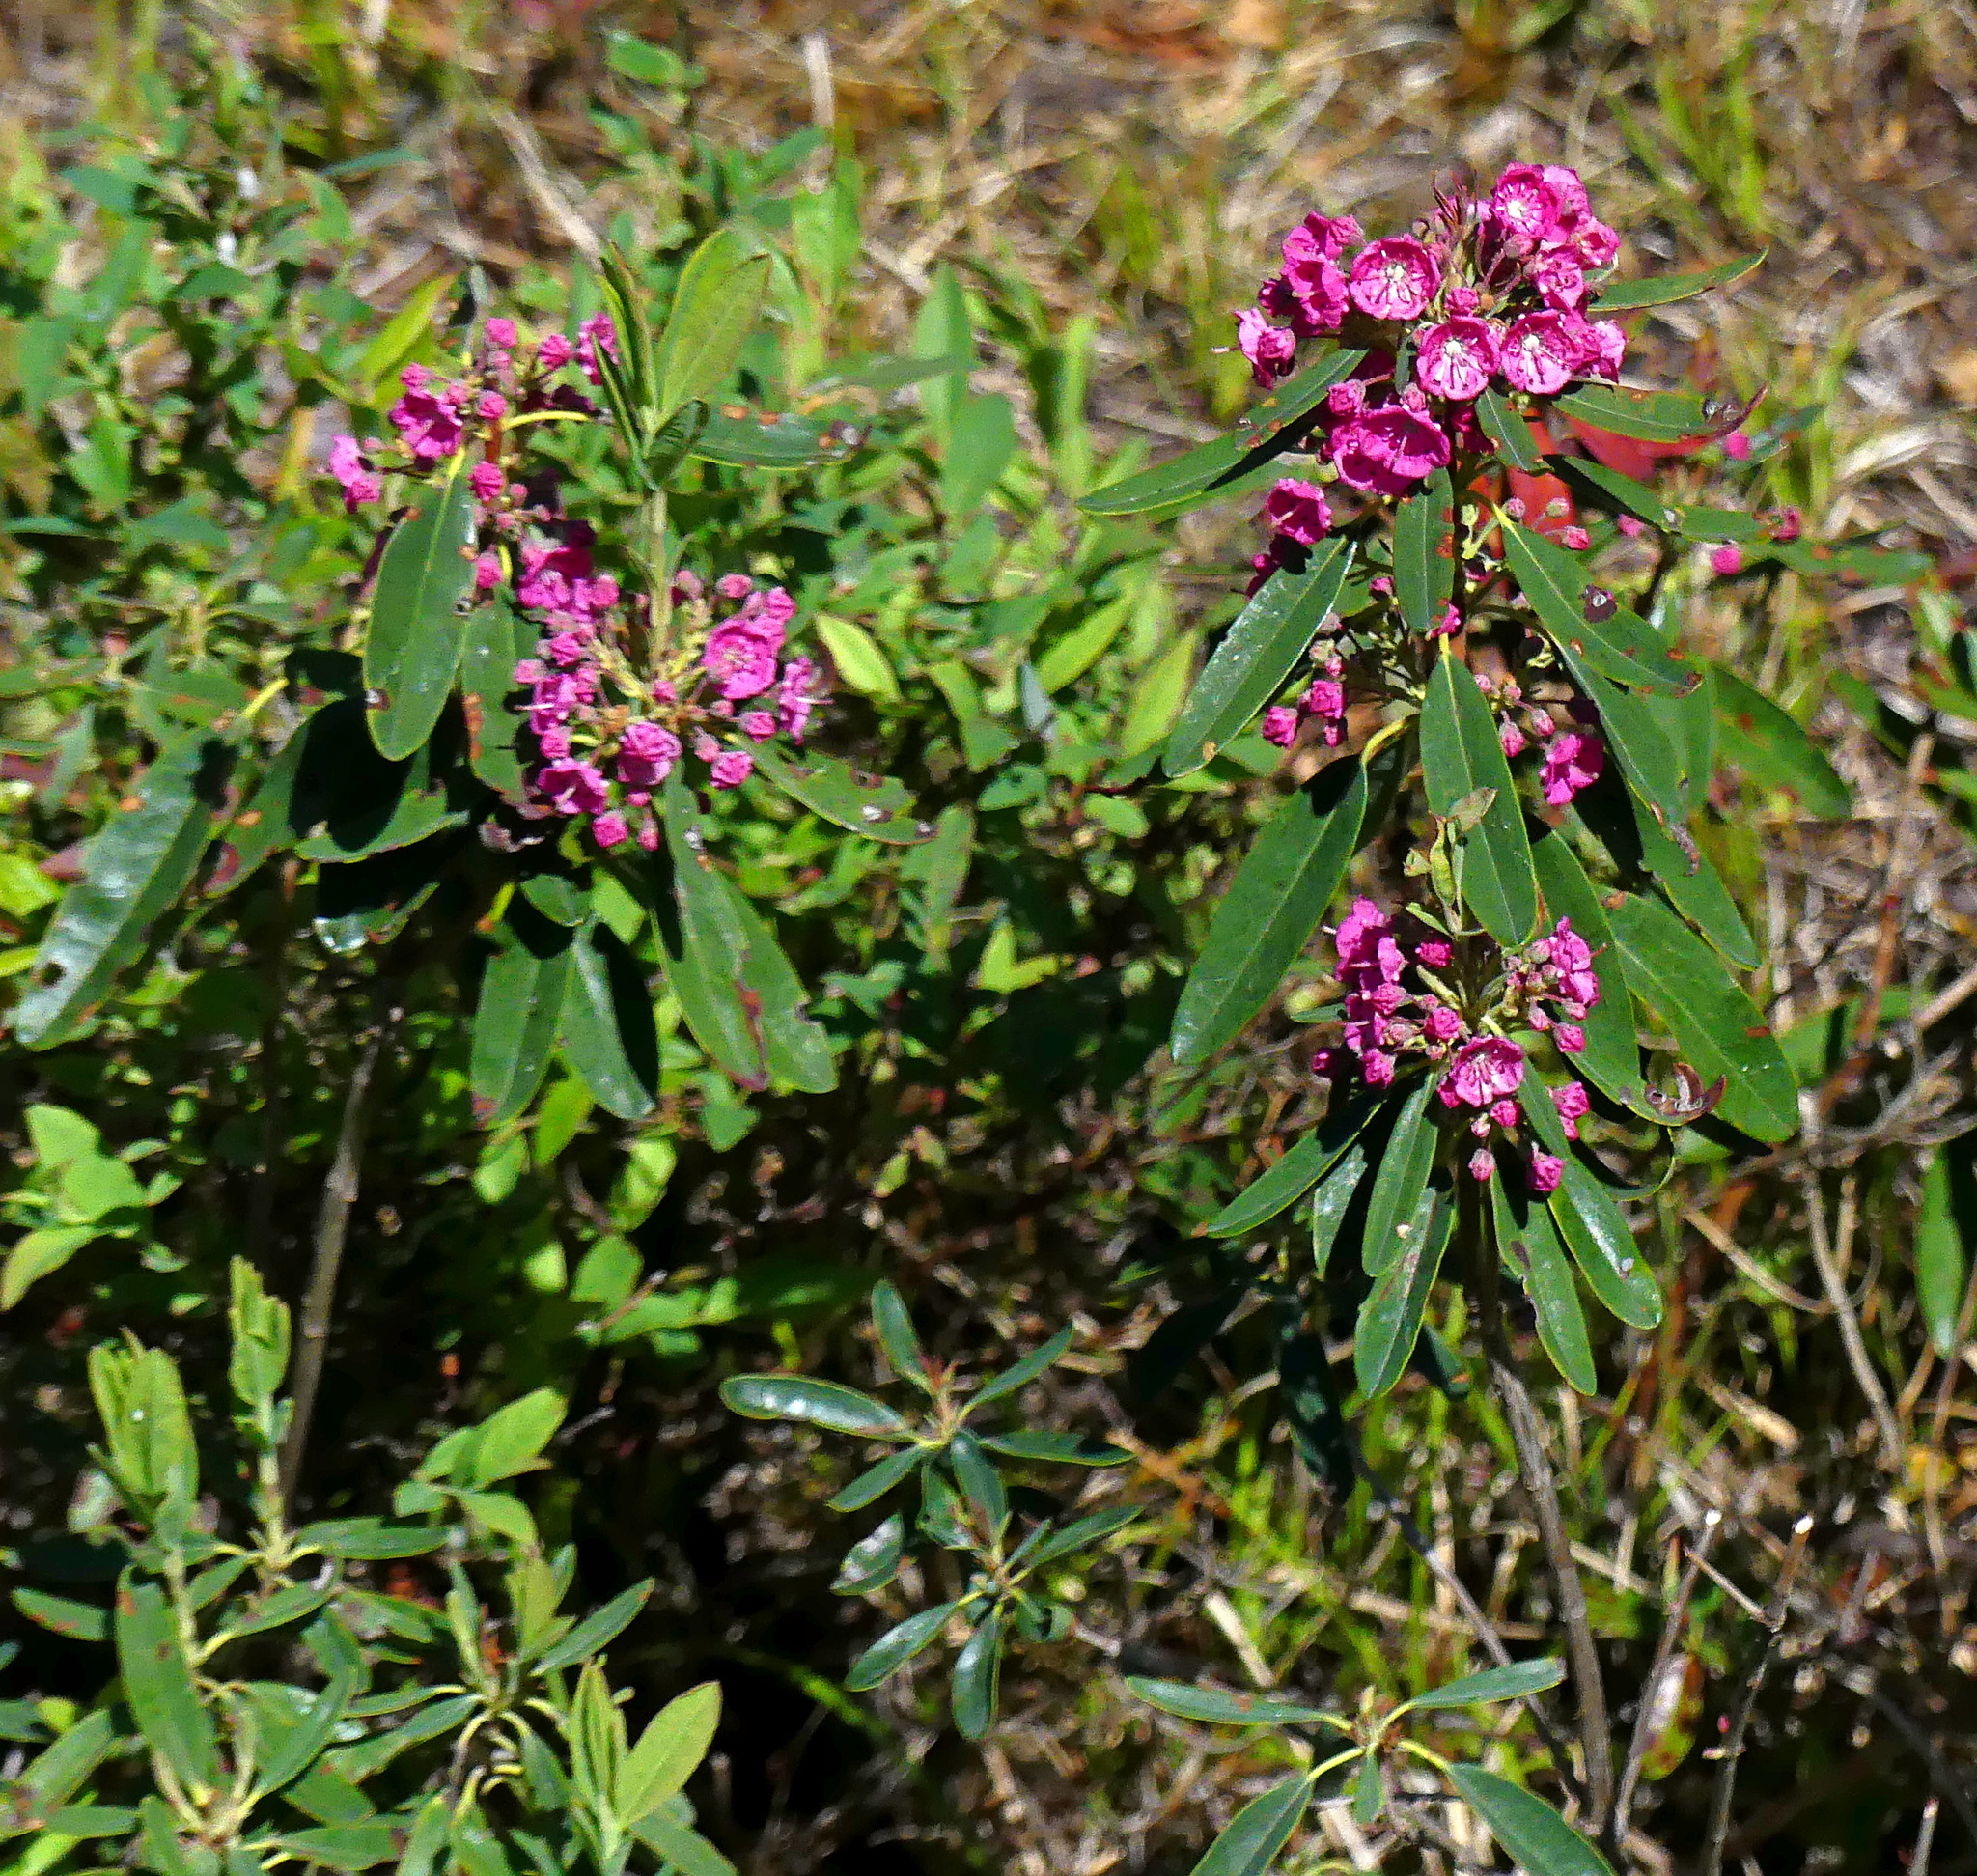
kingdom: Plantae
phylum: Tracheophyta
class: Magnoliopsida
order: Ericales
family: Ericaceae
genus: Kalmia
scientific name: Kalmia angustifolia
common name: Sheep-laurel
